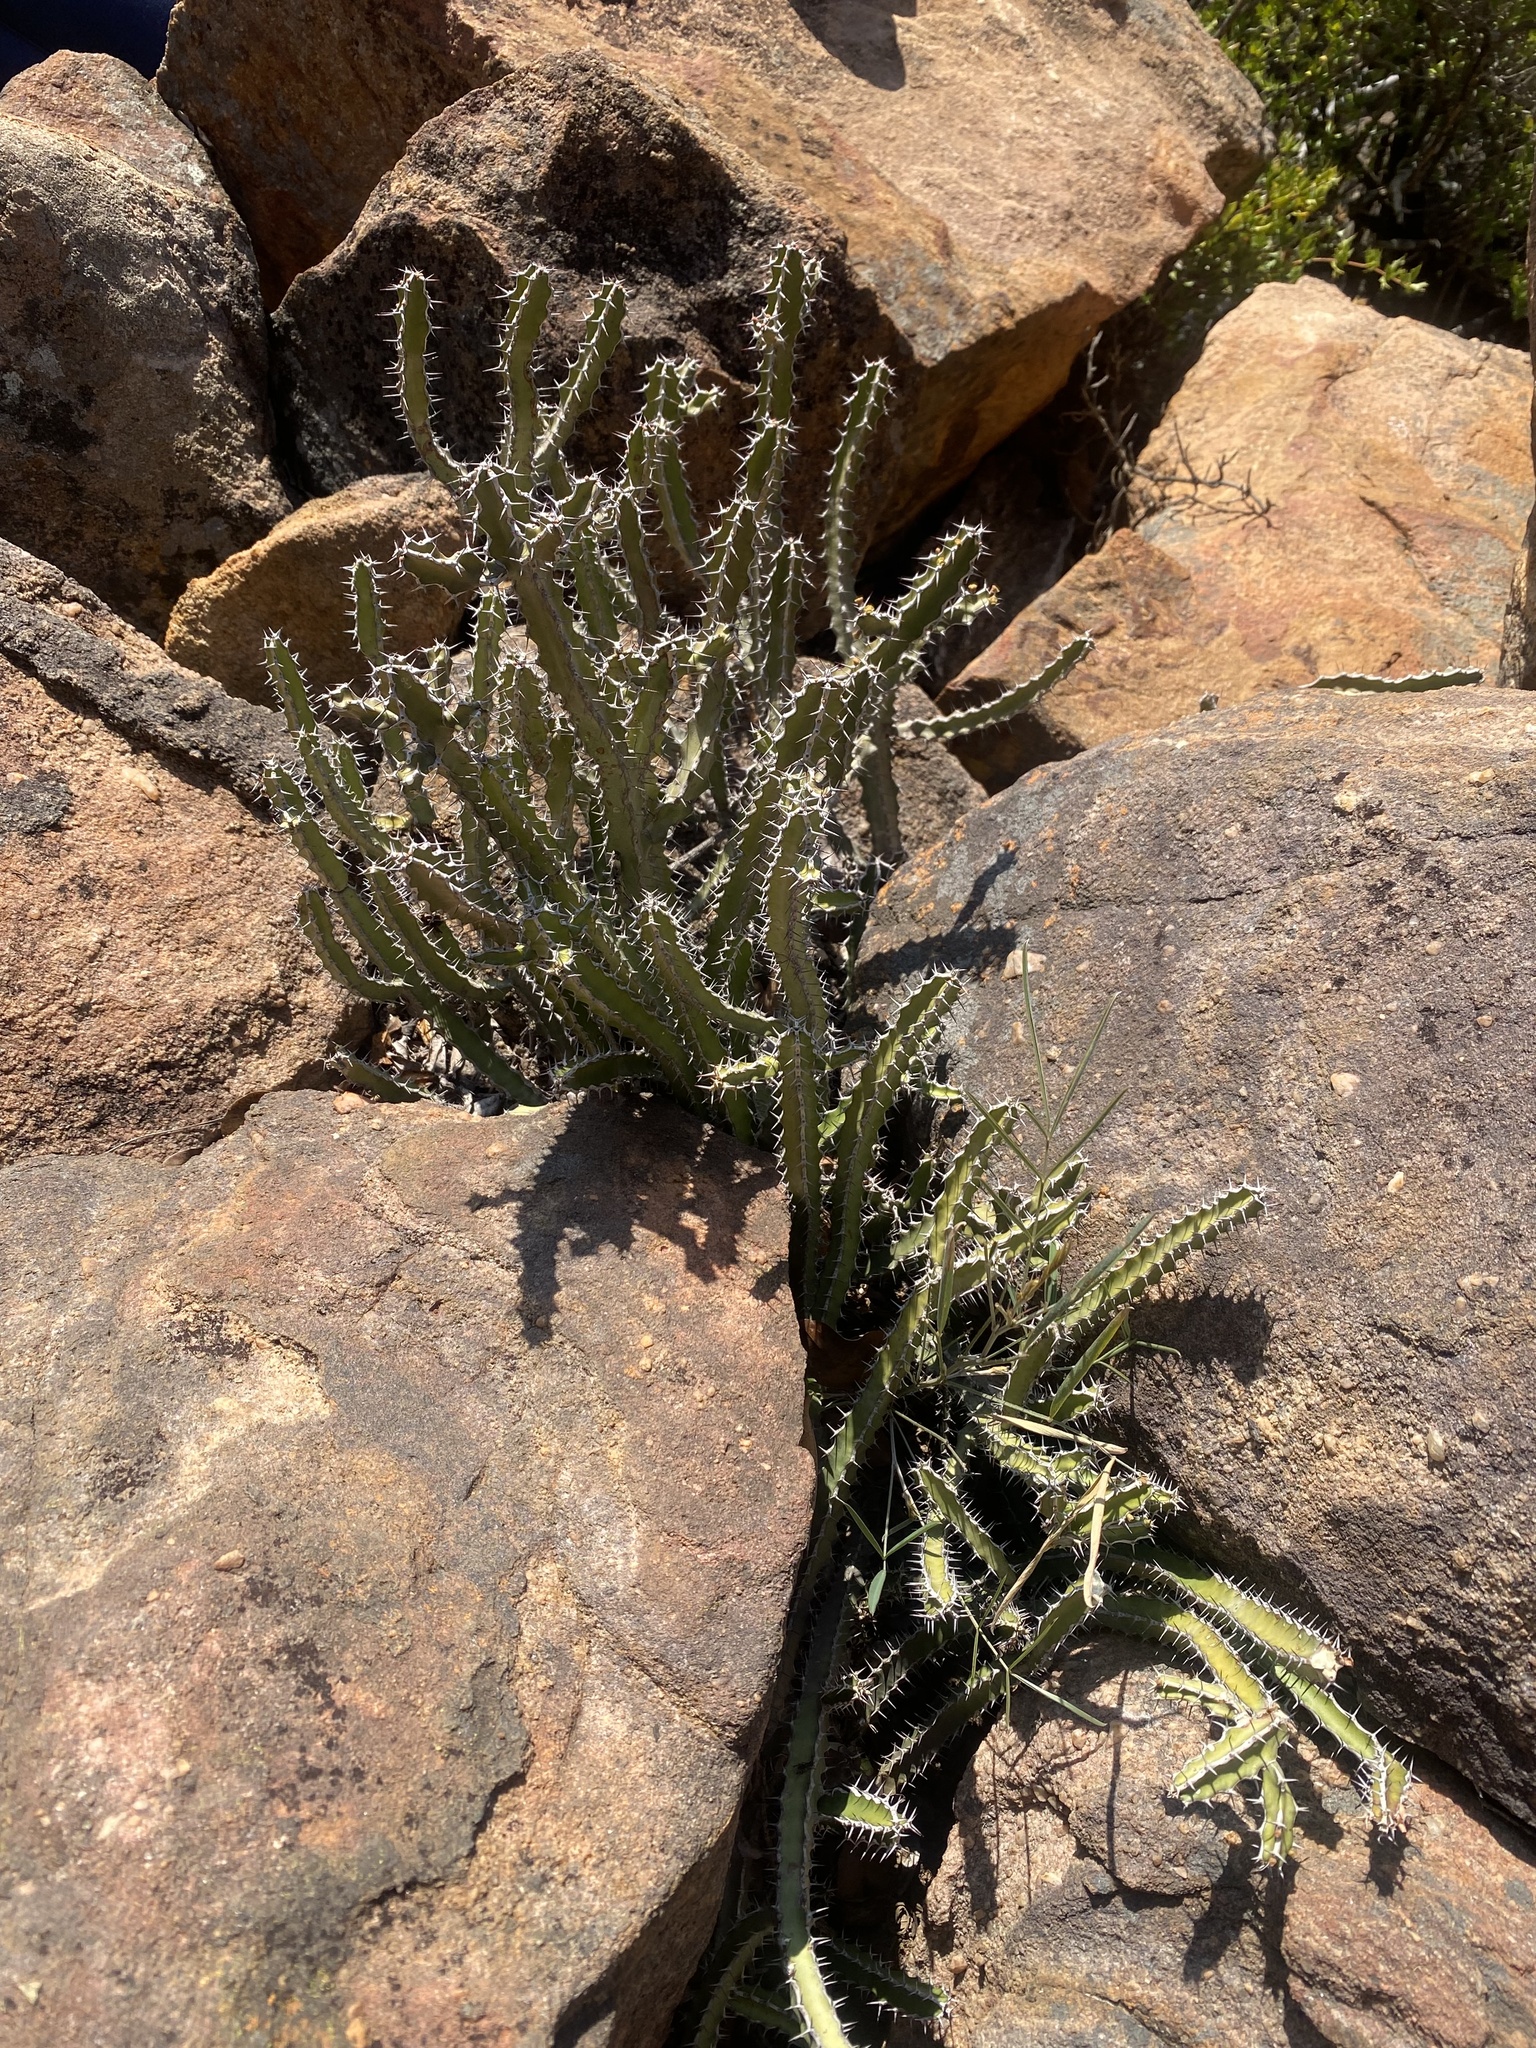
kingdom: Plantae
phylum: Tracheophyta
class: Magnoliopsida
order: Malpighiales
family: Euphorbiaceae
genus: Euphorbia
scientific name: Euphorbia griseola
